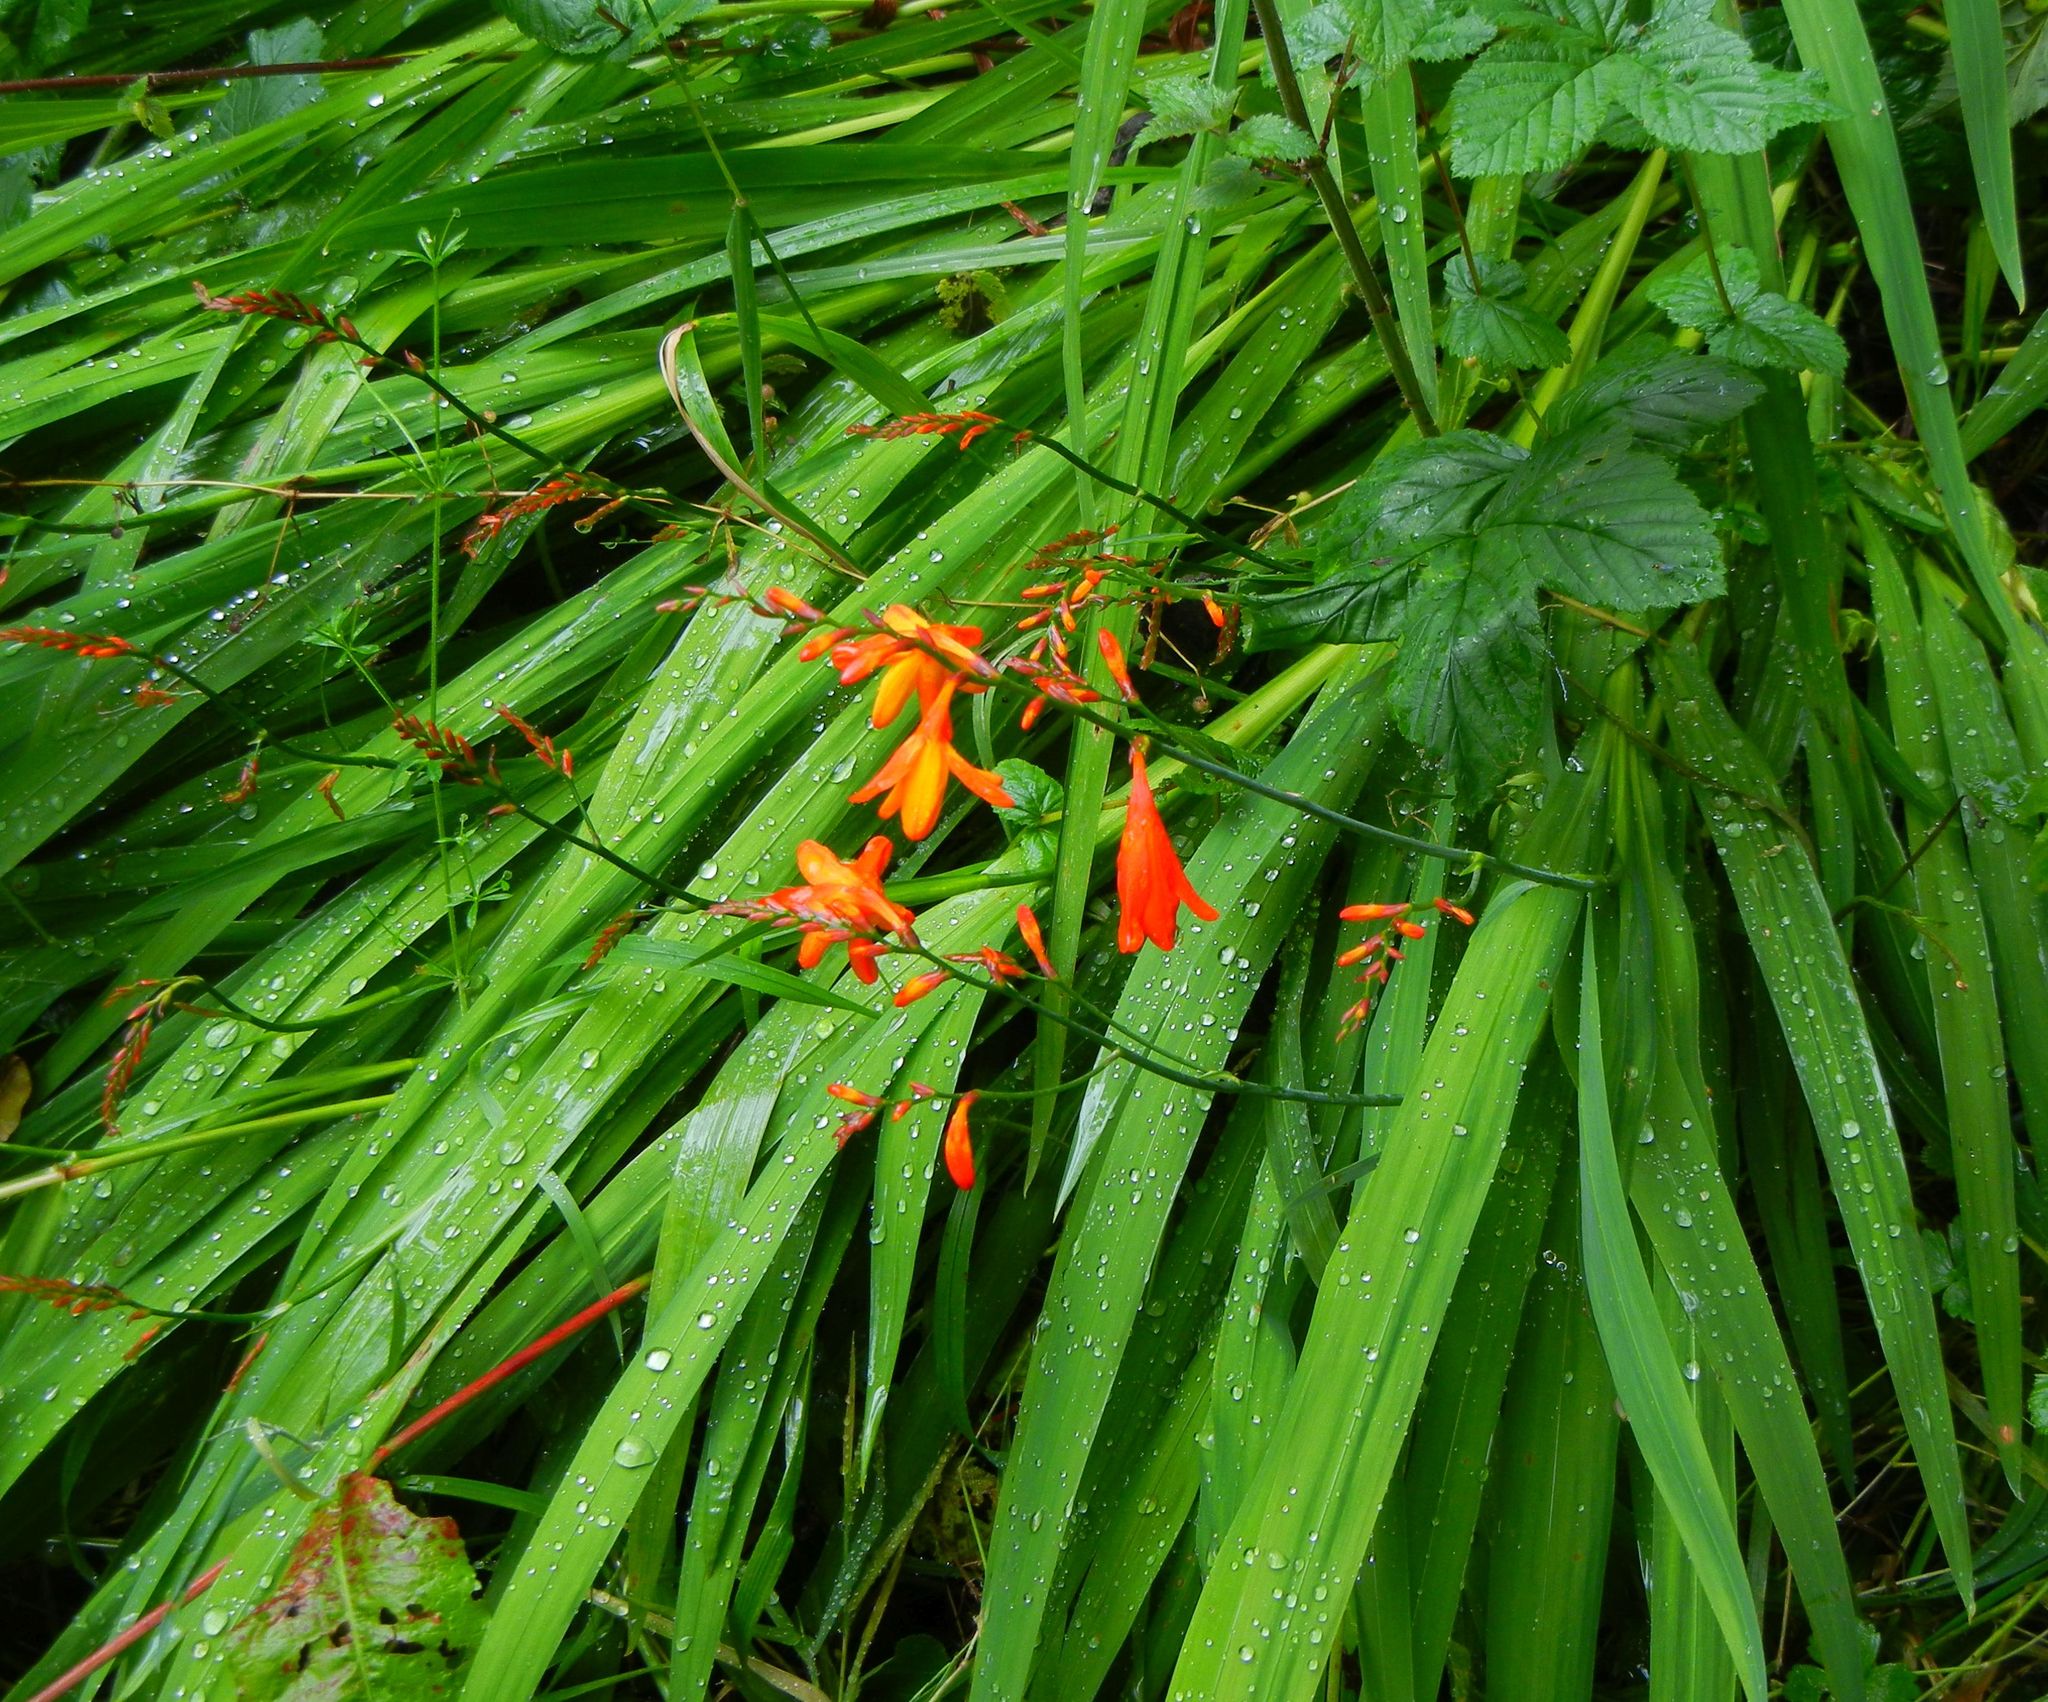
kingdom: Plantae
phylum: Tracheophyta
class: Liliopsida
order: Asparagales
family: Iridaceae
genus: Crocosmia
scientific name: Crocosmia crocosmiiflora
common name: Montbretia
